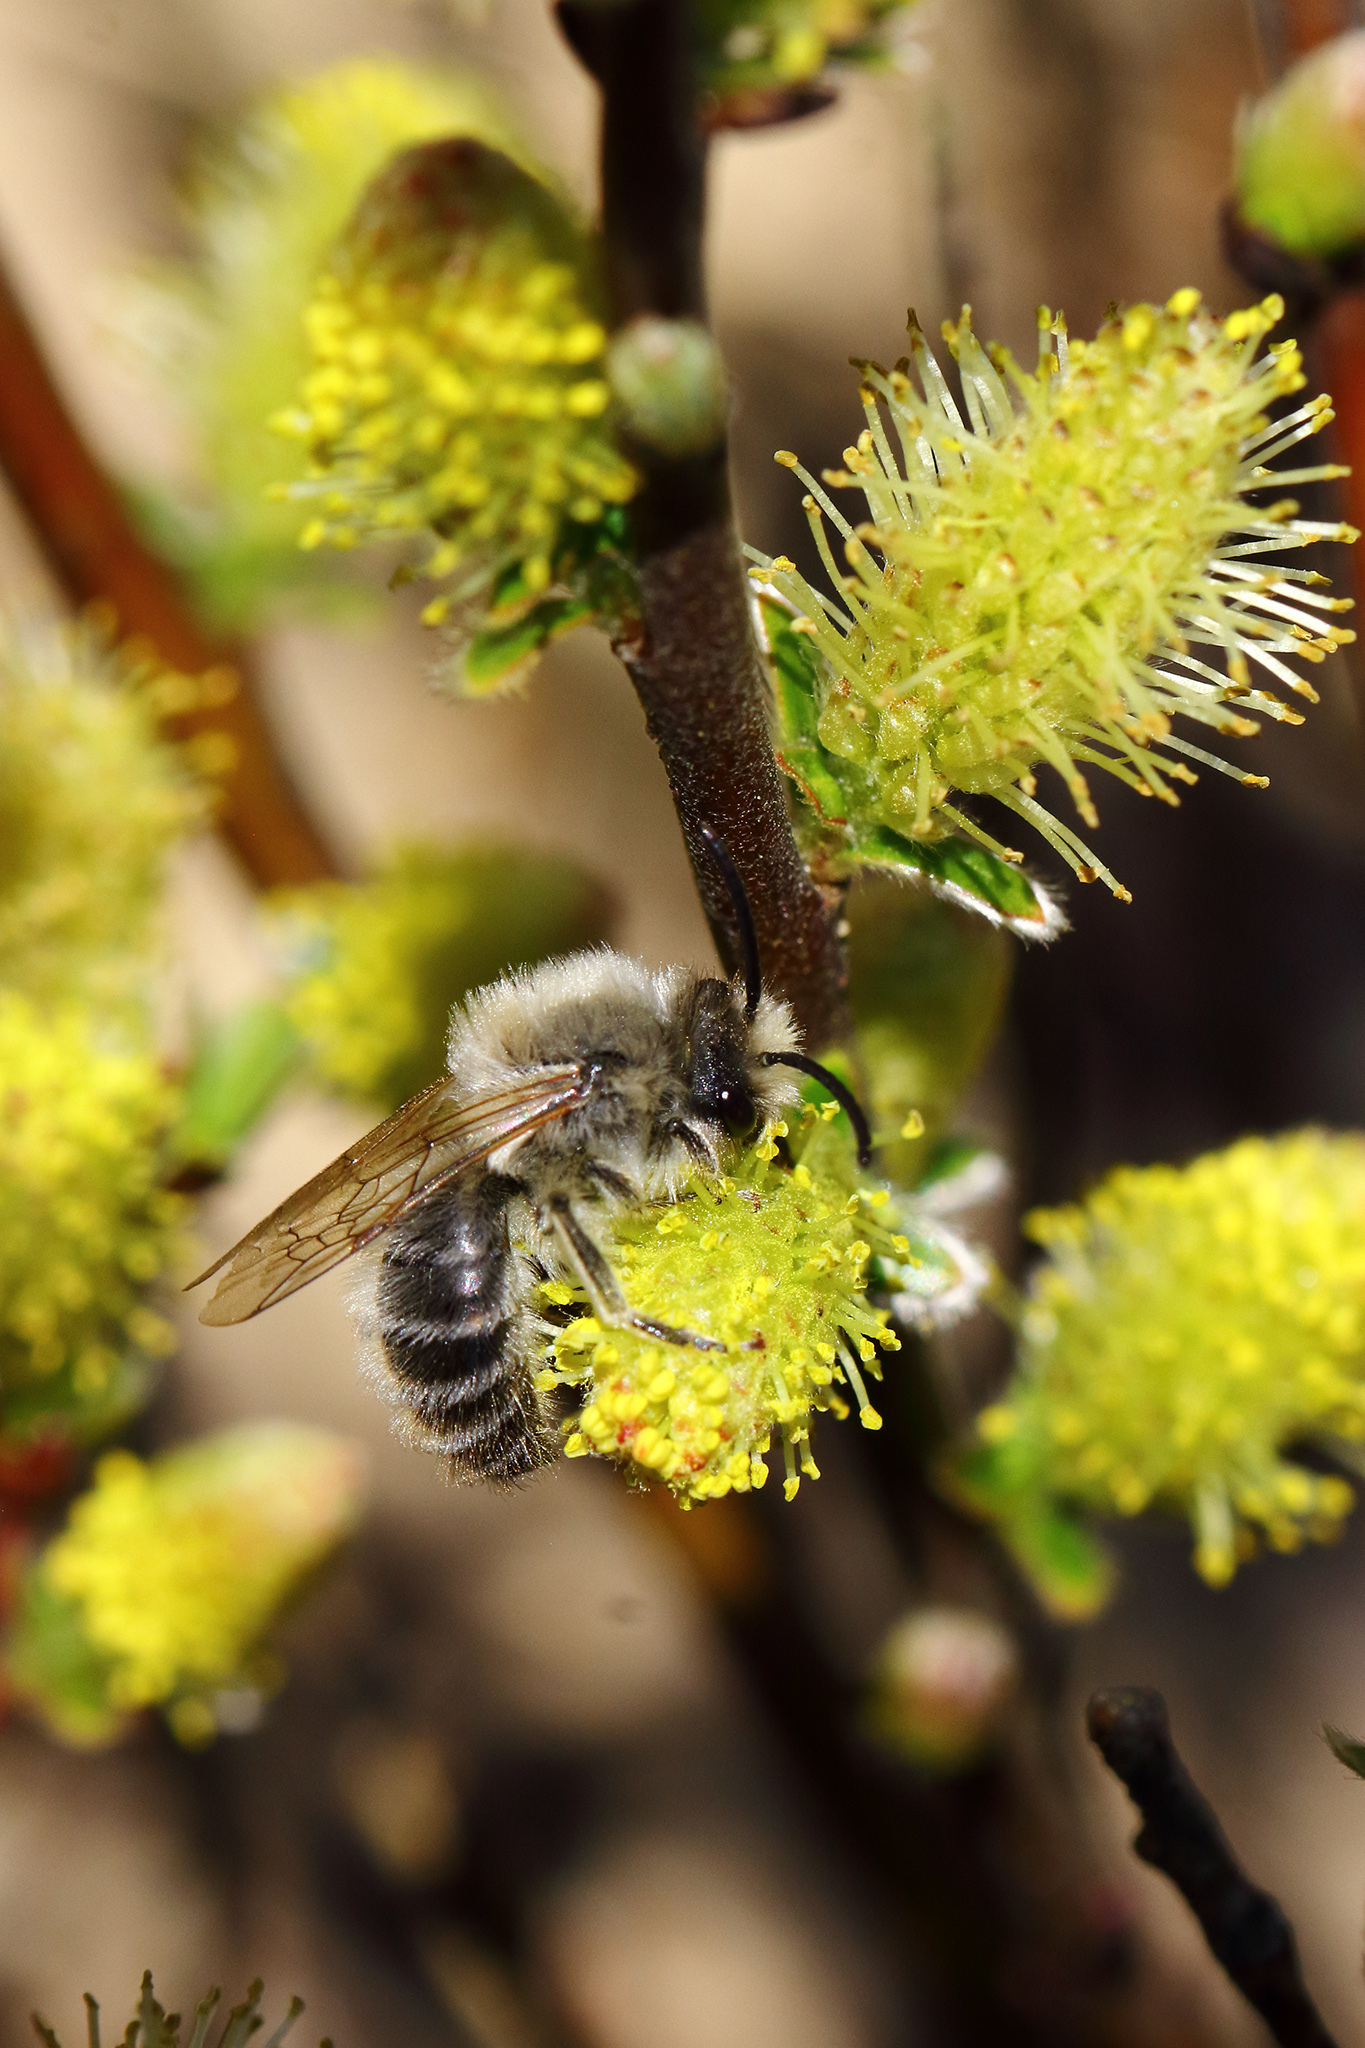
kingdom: Animalia
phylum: Arthropoda
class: Insecta
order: Hymenoptera
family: Colletidae
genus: Colletes
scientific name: Colletes cunicularius
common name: Early colletes
